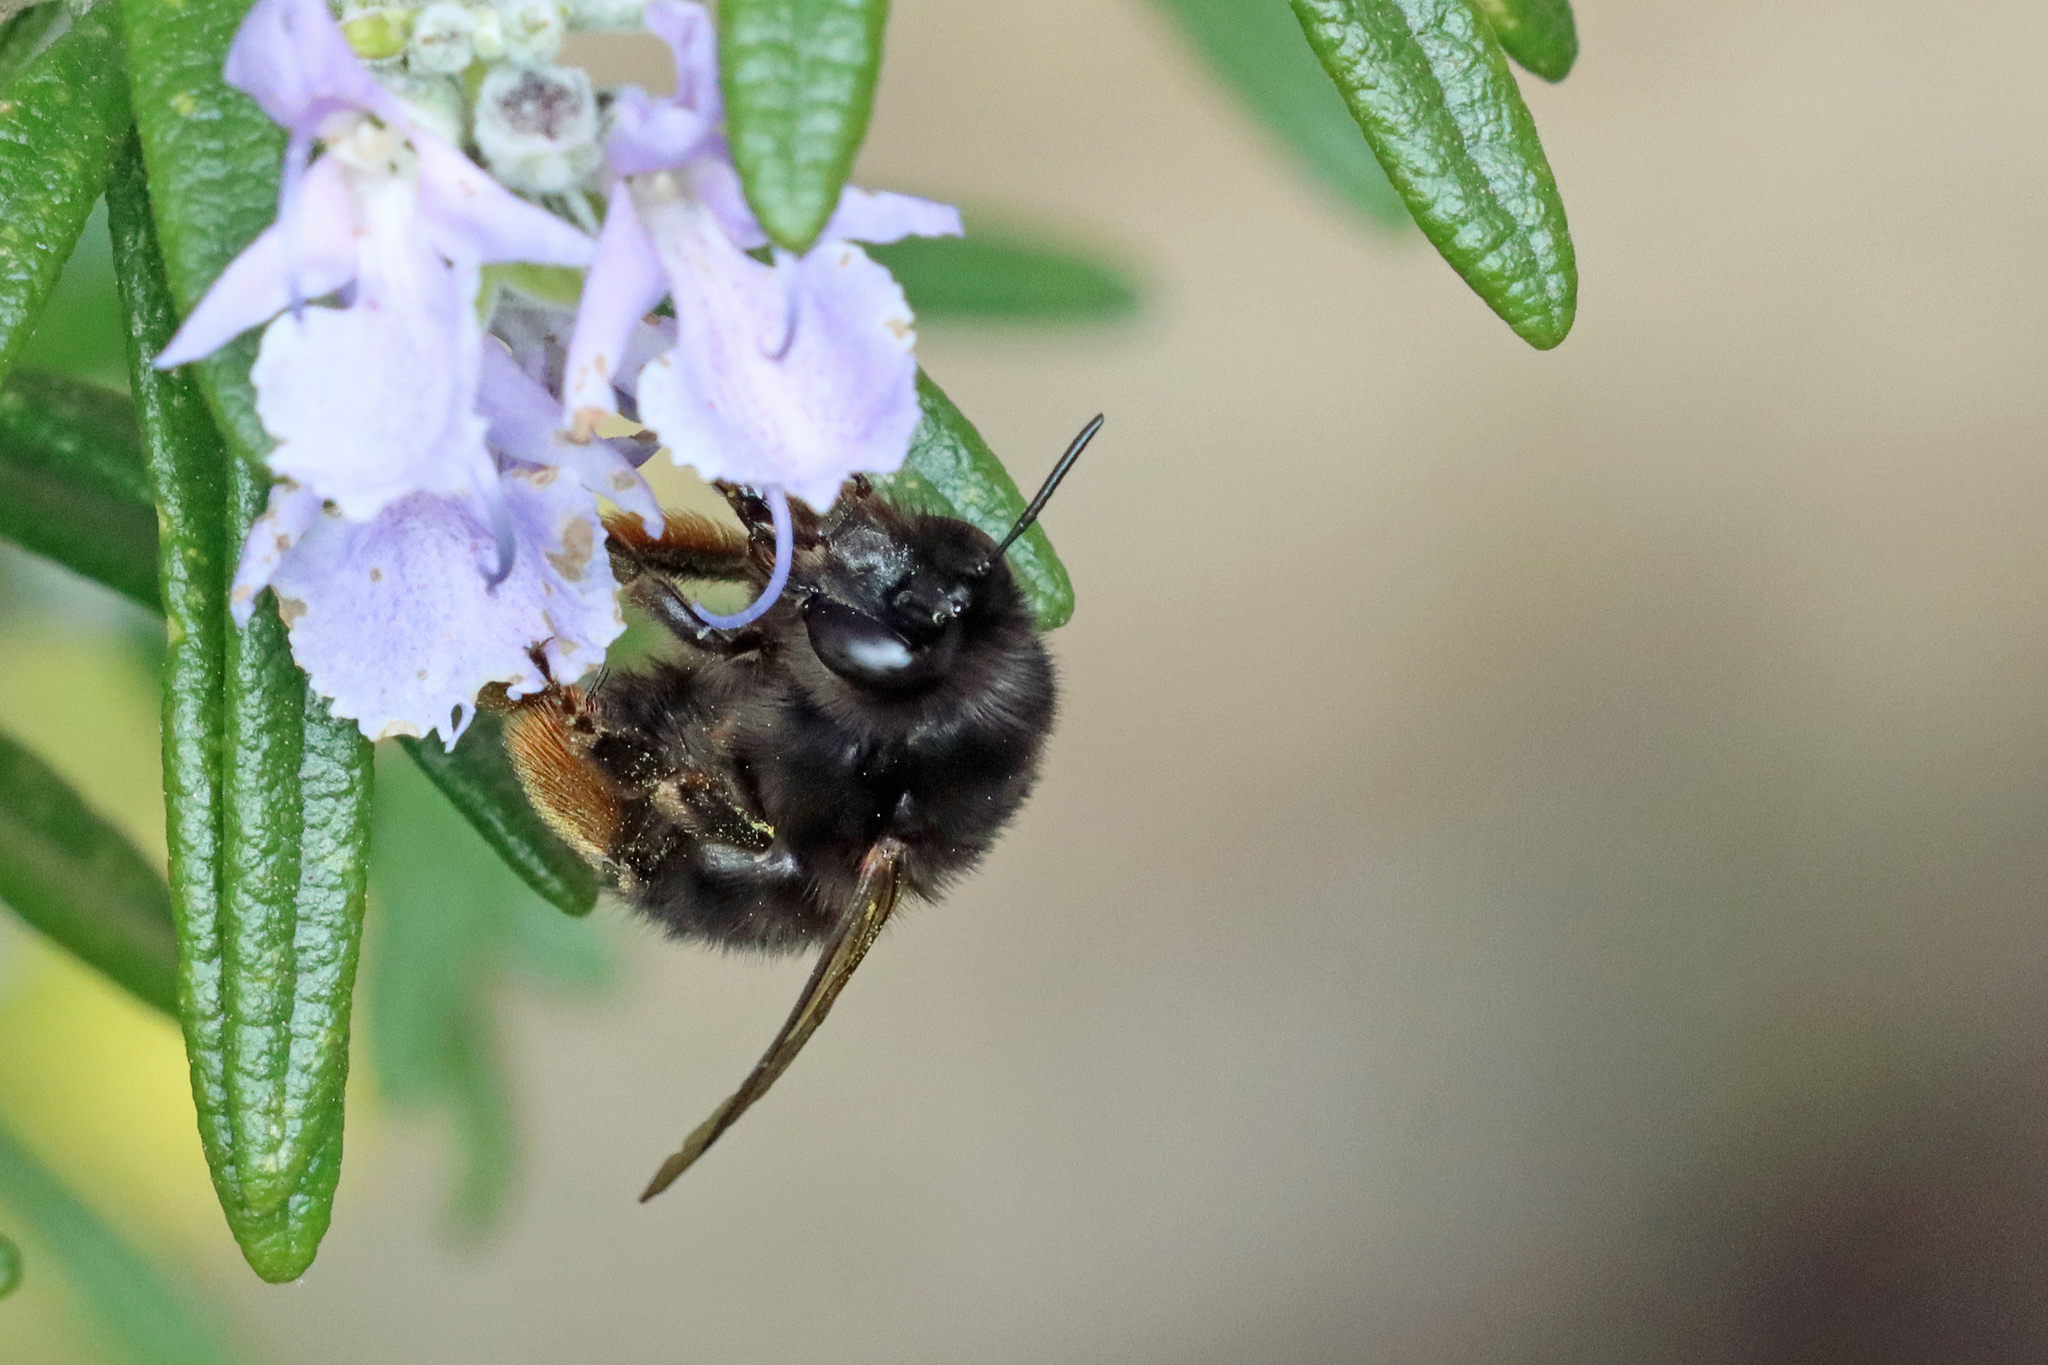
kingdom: Animalia
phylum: Arthropoda
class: Insecta
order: Hymenoptera
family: Apidae
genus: Anthophora
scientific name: Anthophora plumipes
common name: Hairy-footed flower bee
